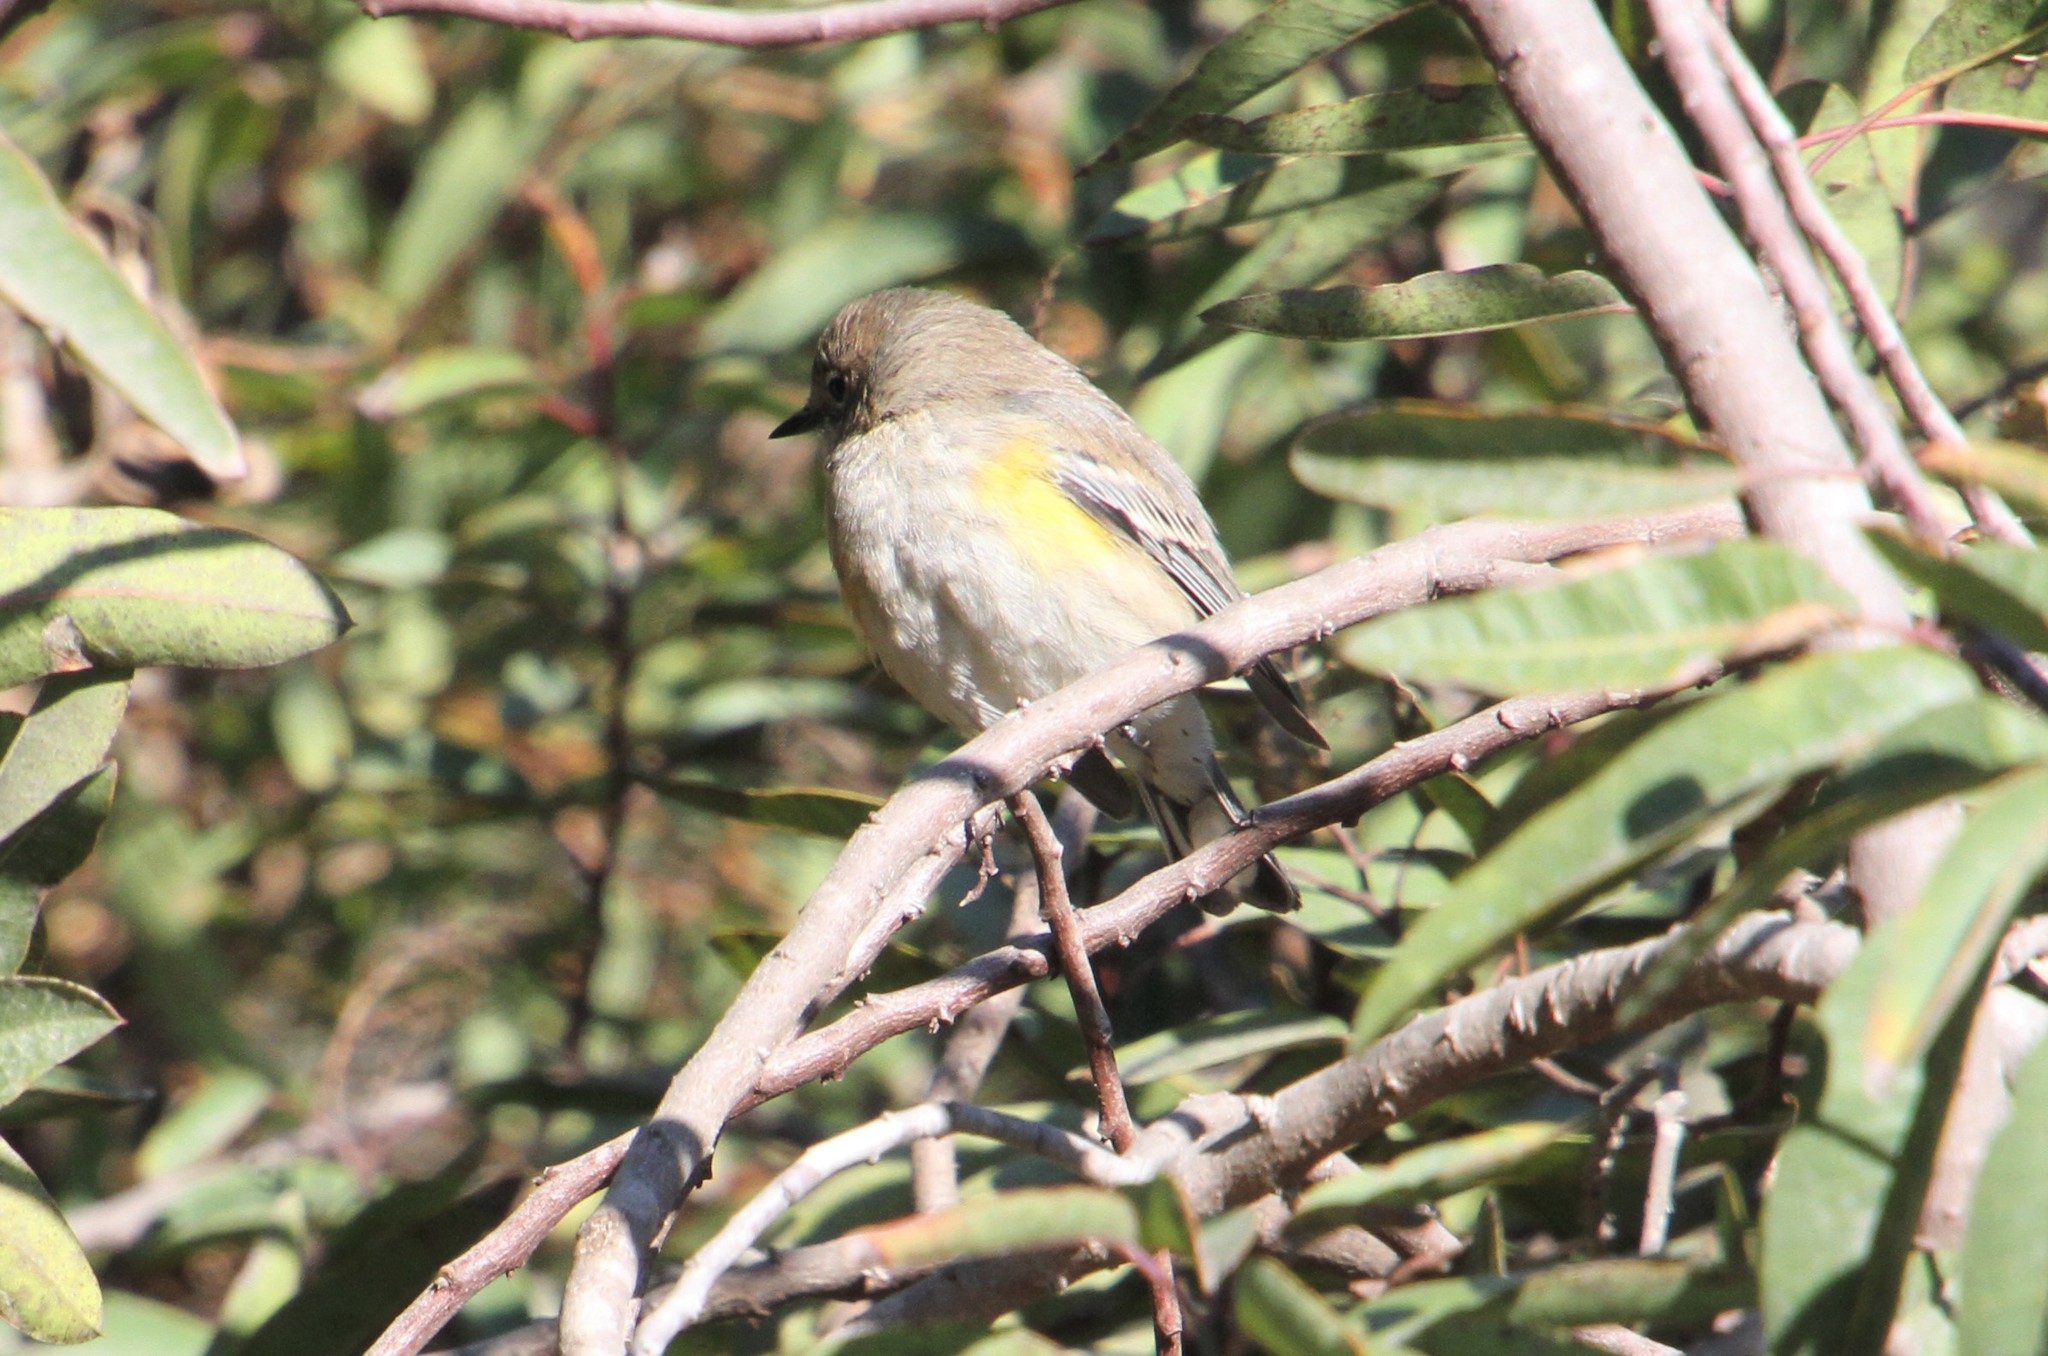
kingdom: Animalia
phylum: Chordata
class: Aves
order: Passeriformes
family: Parulidae
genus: Setophaga
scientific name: Setophaga coronata
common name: Myrtle warbler
